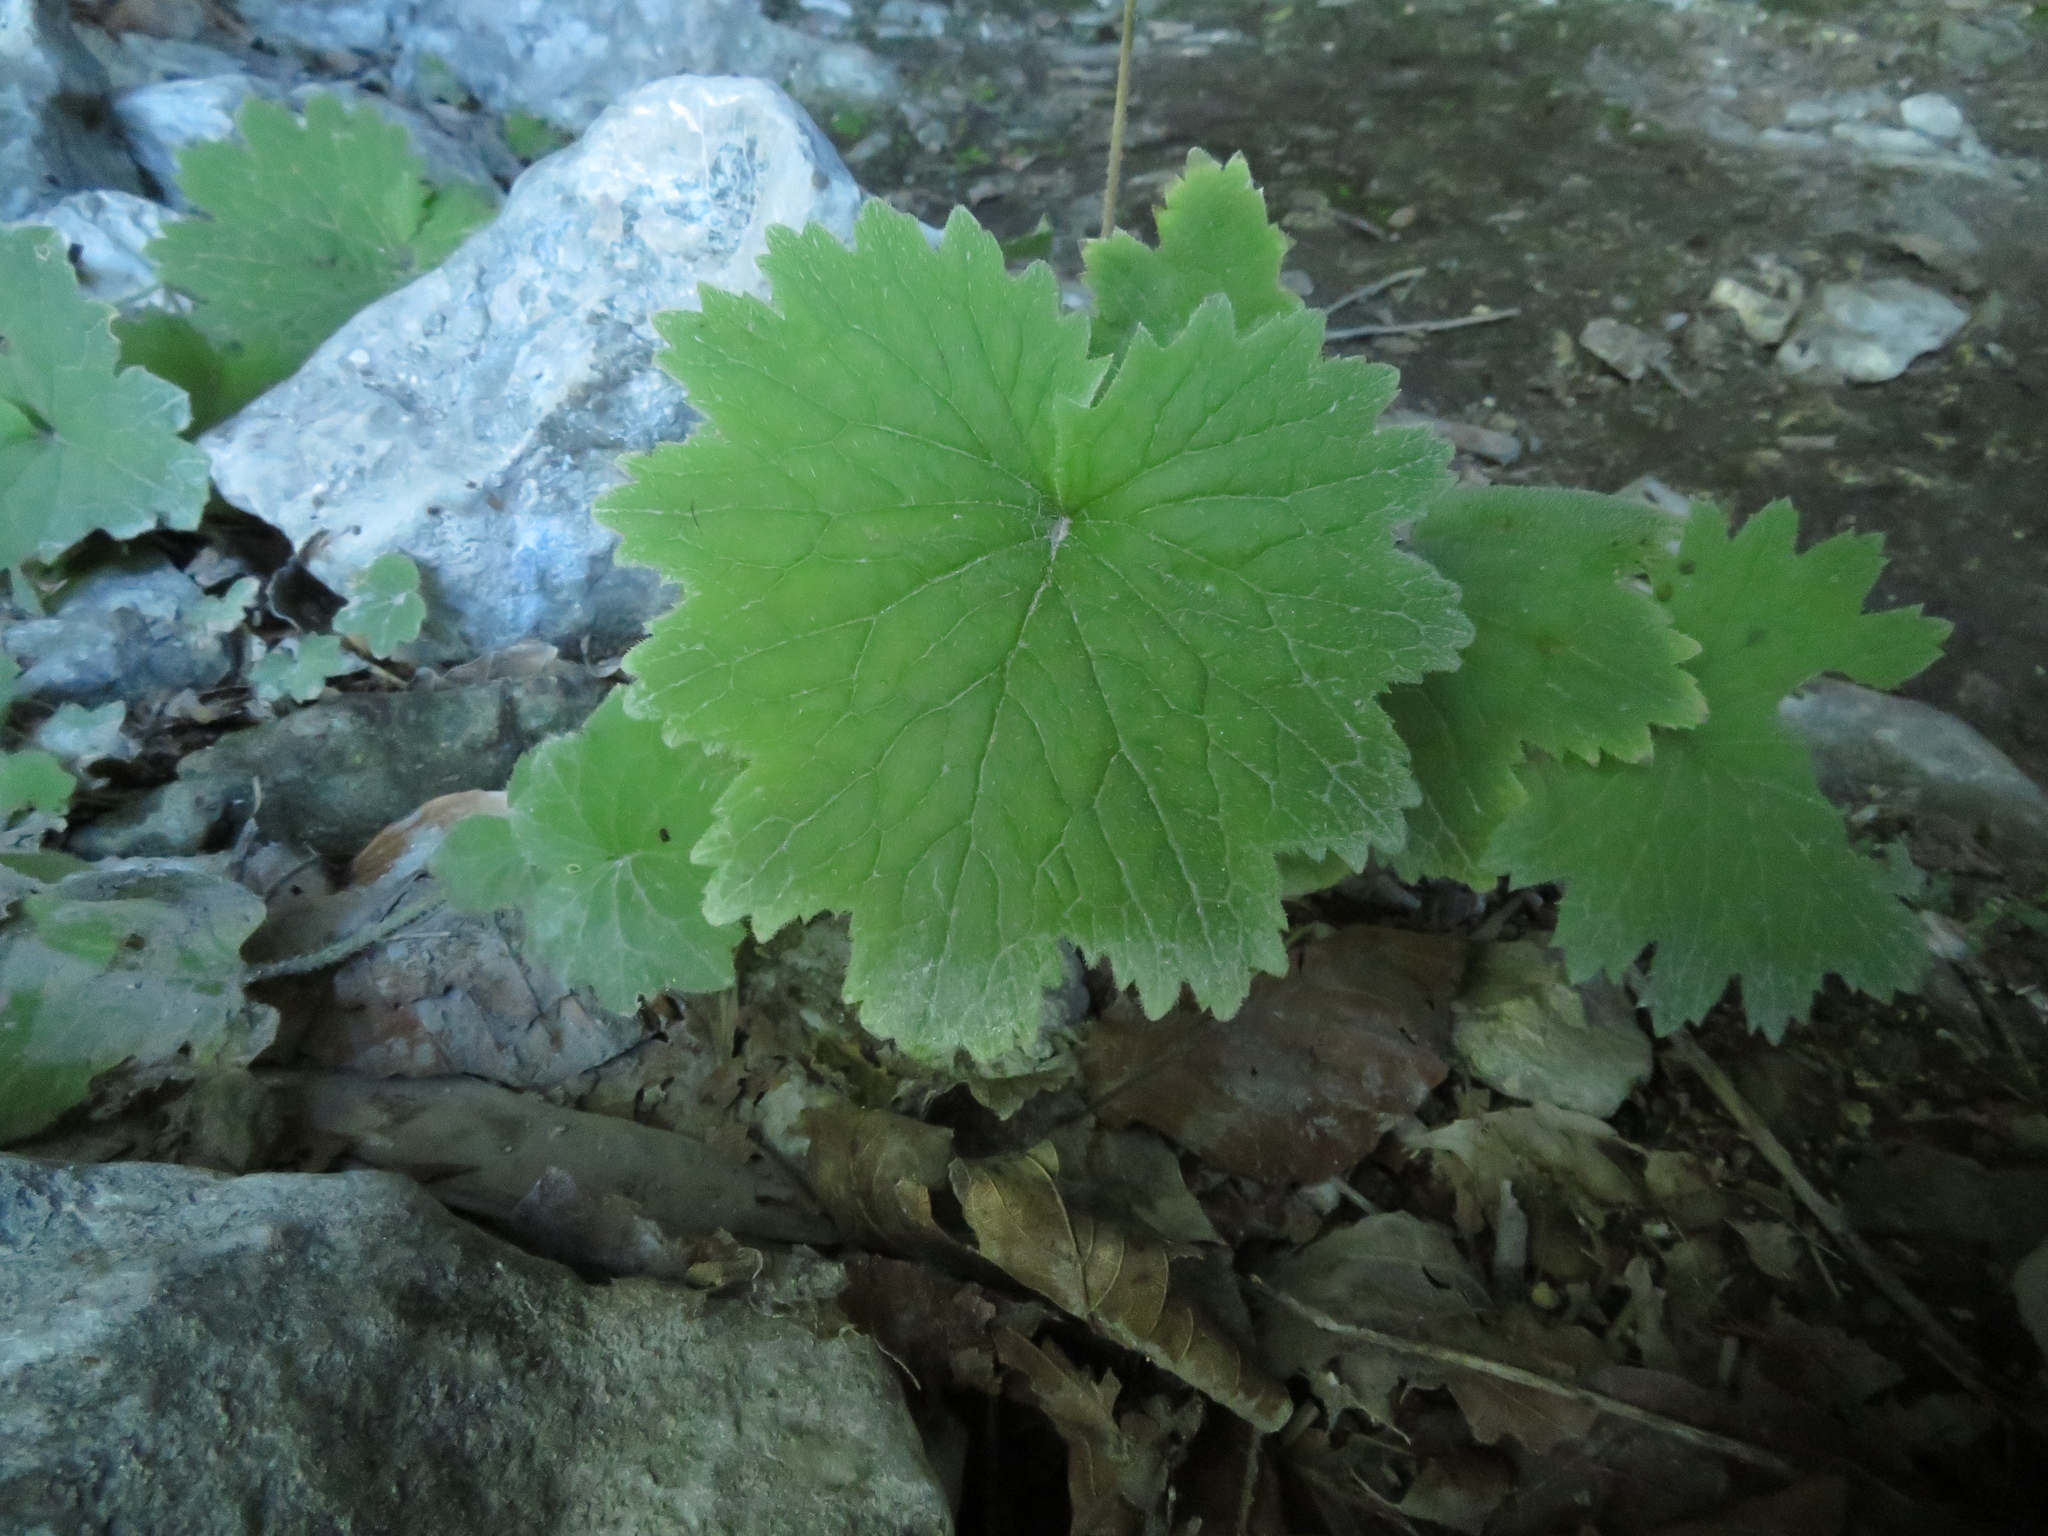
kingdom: Plantae
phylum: Tracheophyta
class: Magnoliopsida
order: Ericales
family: Primulaceae
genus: Primula
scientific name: Primula matthioli
